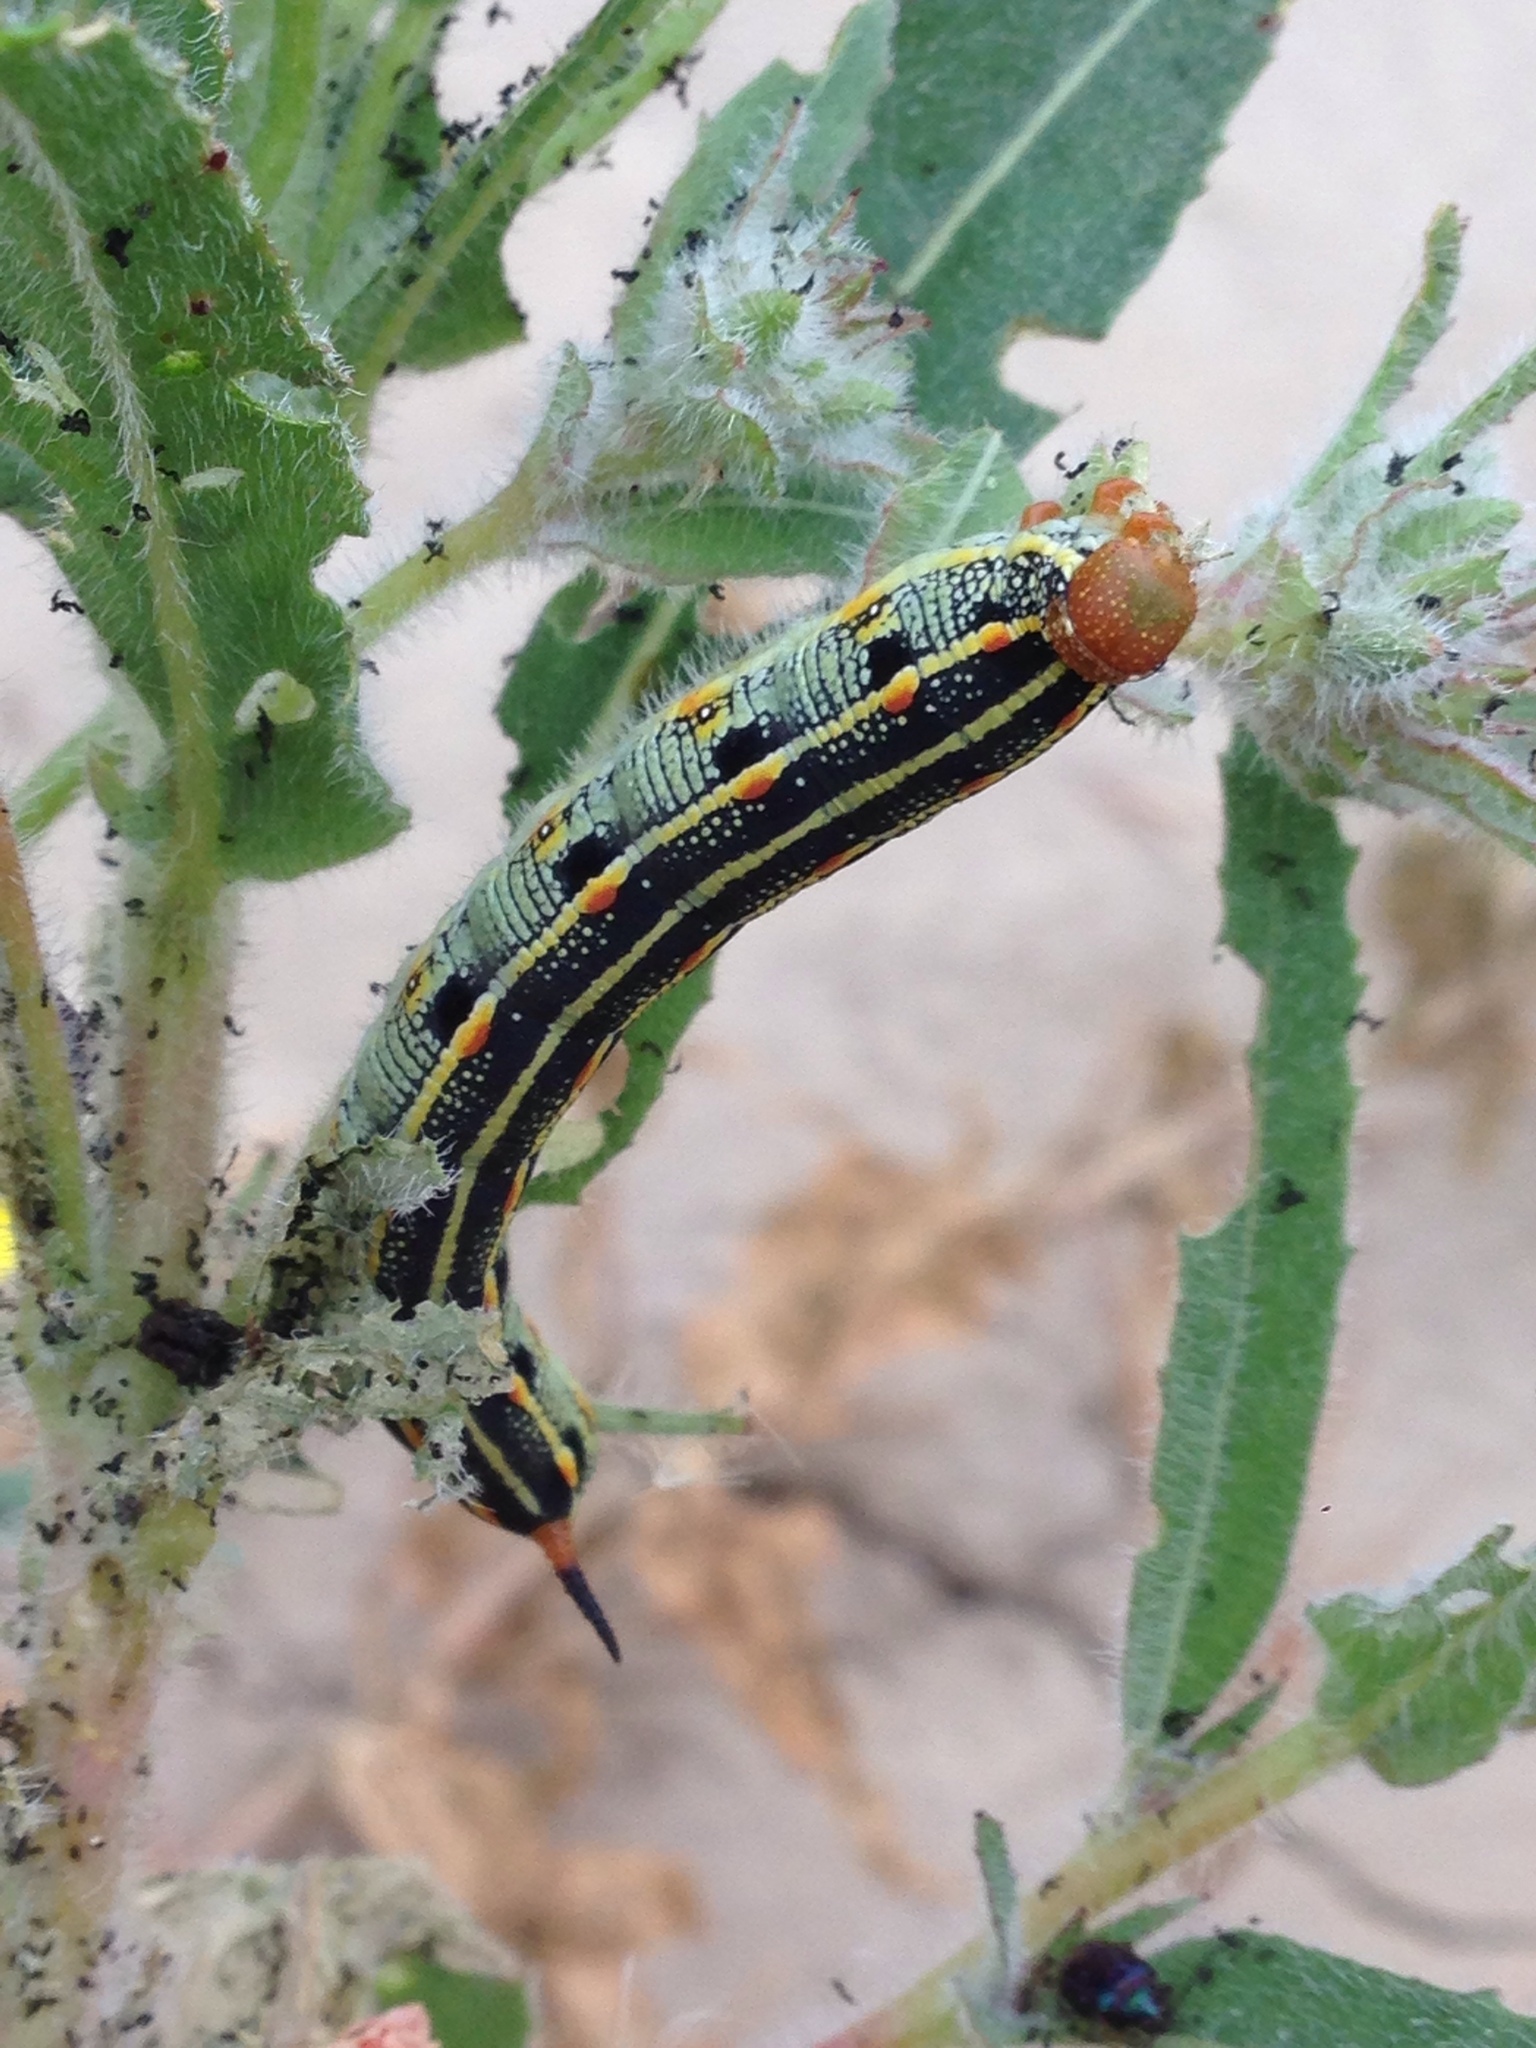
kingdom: Animalia
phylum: Arthropoda
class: Insecta
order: Lepidoptera
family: Sphingidae
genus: Hyles
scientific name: Hyles lineata
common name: White-lined sphinx
